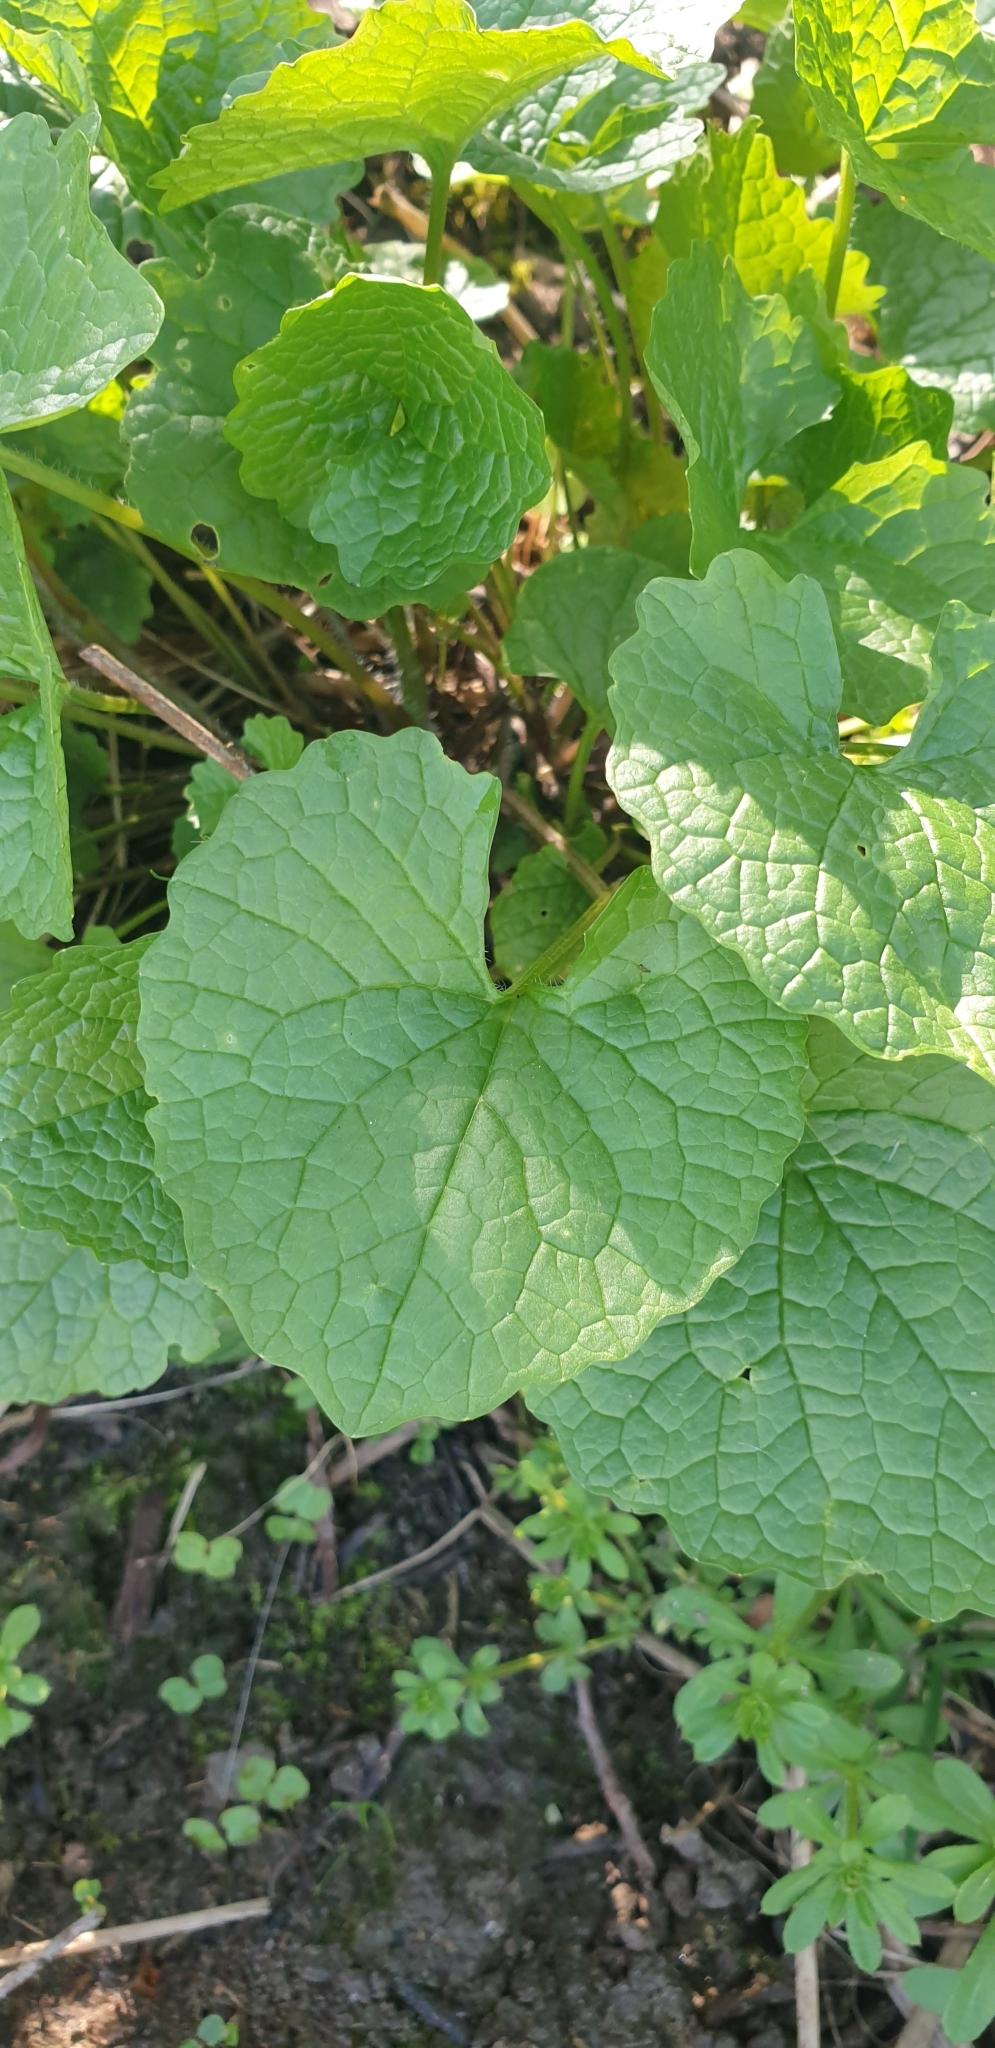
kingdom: Plantae
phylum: Tracheophyta
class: Magnoliopsida
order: Brassicales
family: Brassicaceae
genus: Alliaria
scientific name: Alliaria petiolata
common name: Garlic mustard
